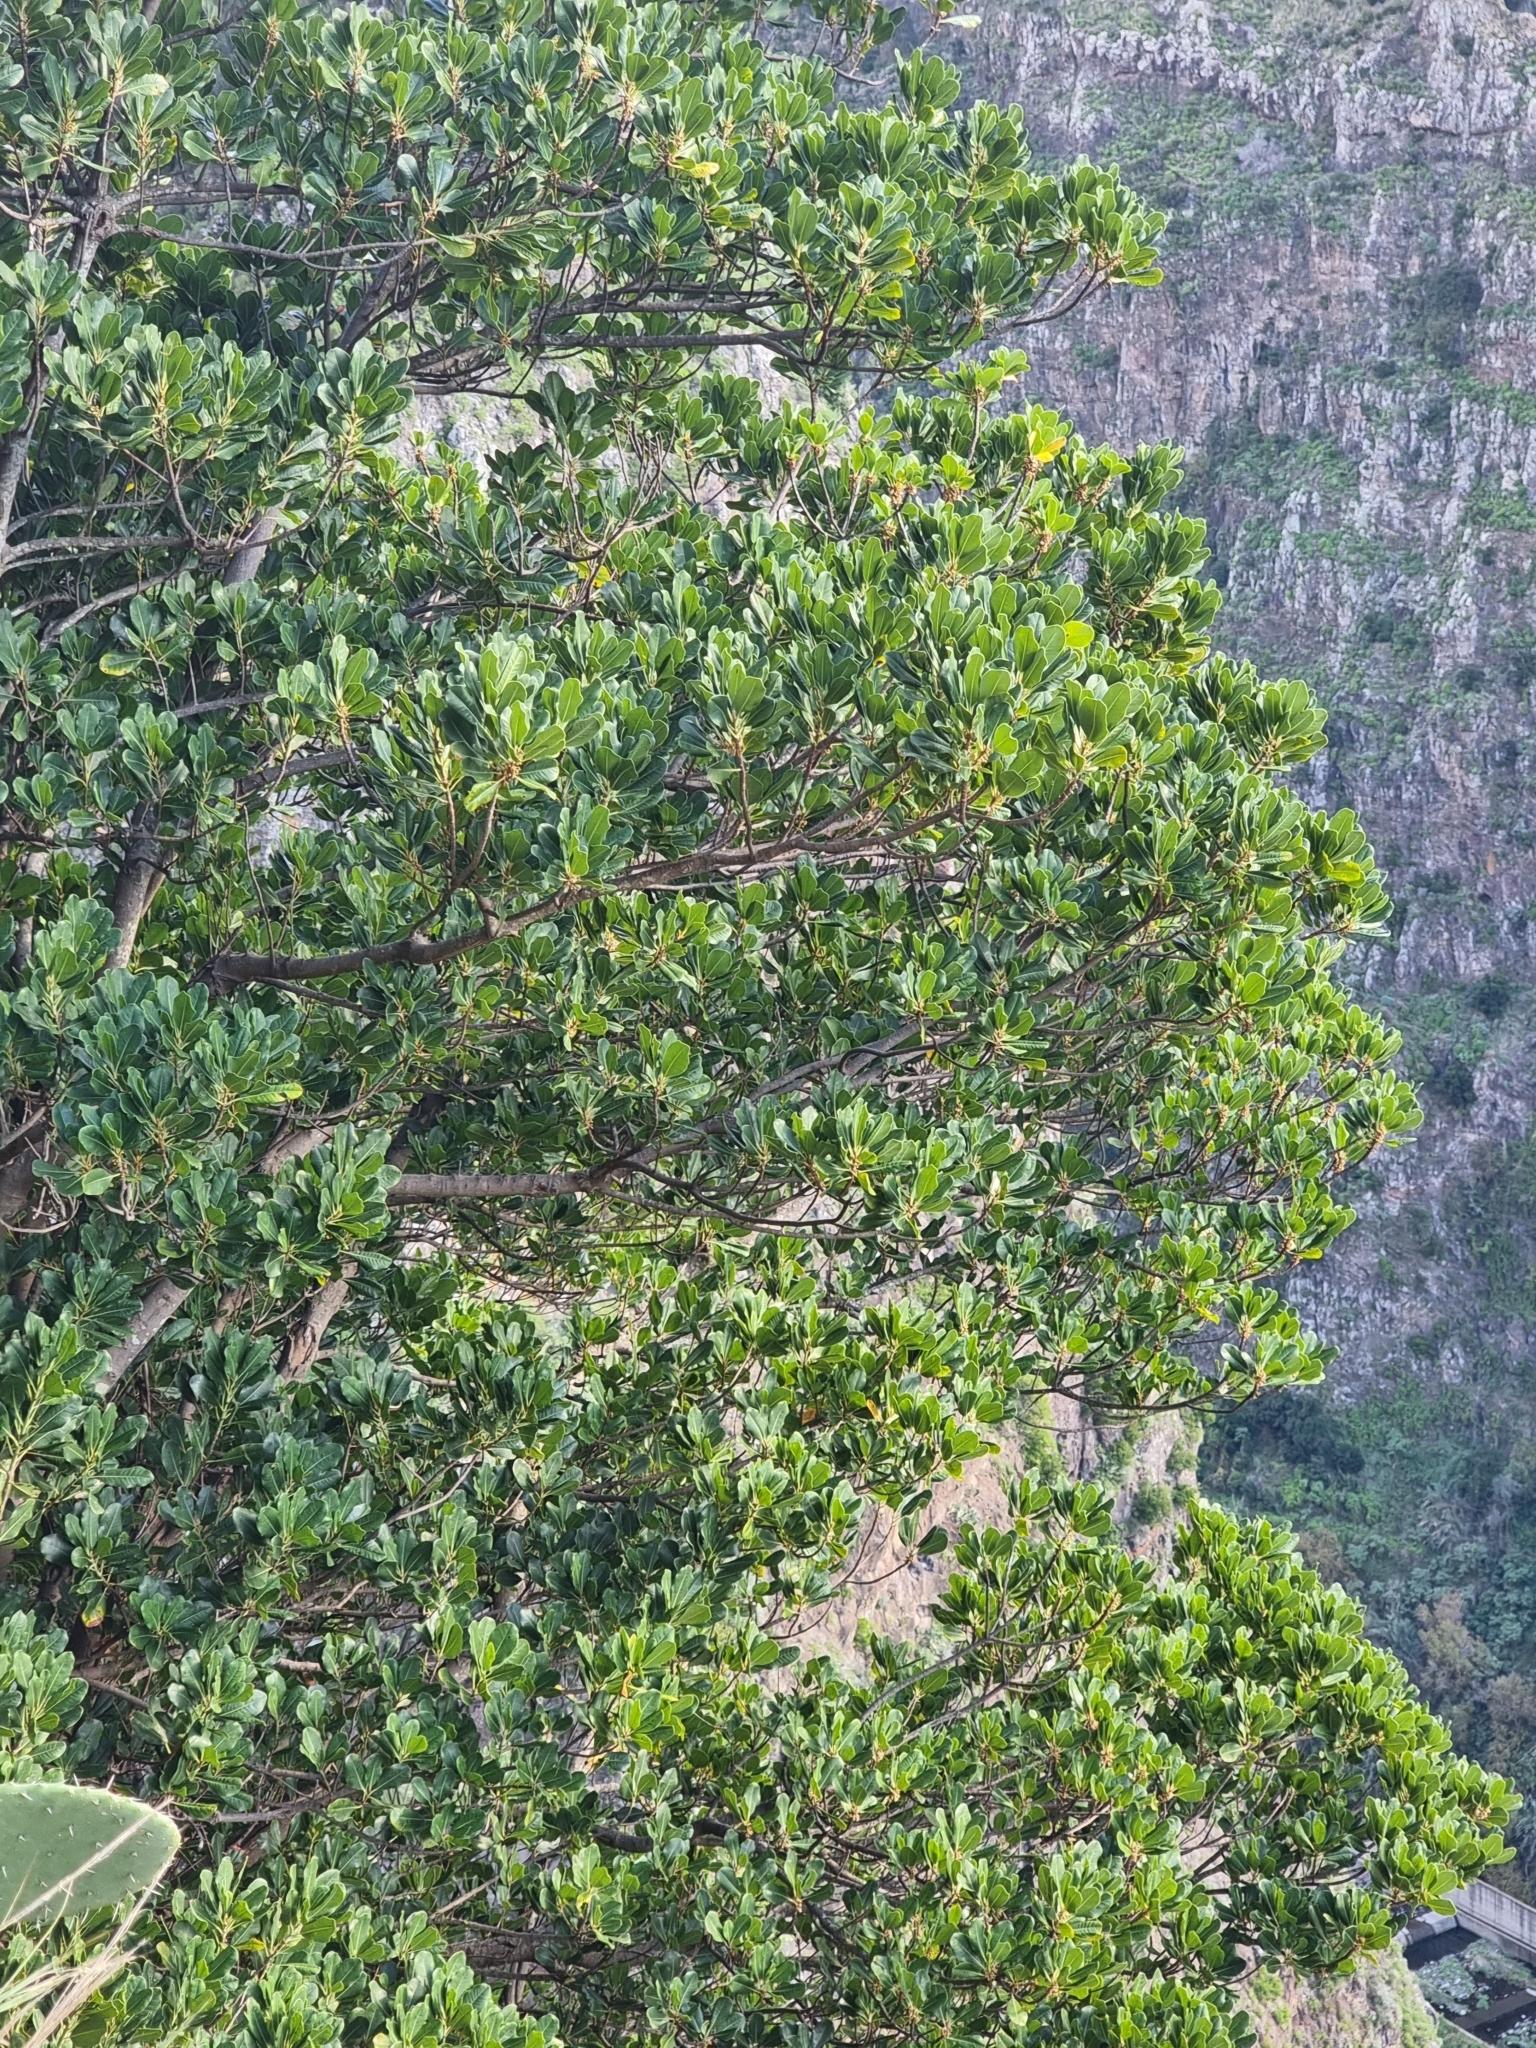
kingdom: Plantae
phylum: Tracheophyta
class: Magnoliopsida
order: Ericales
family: Sapotaceae
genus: Sideroxylon
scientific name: Sideroxylon mirmulans
